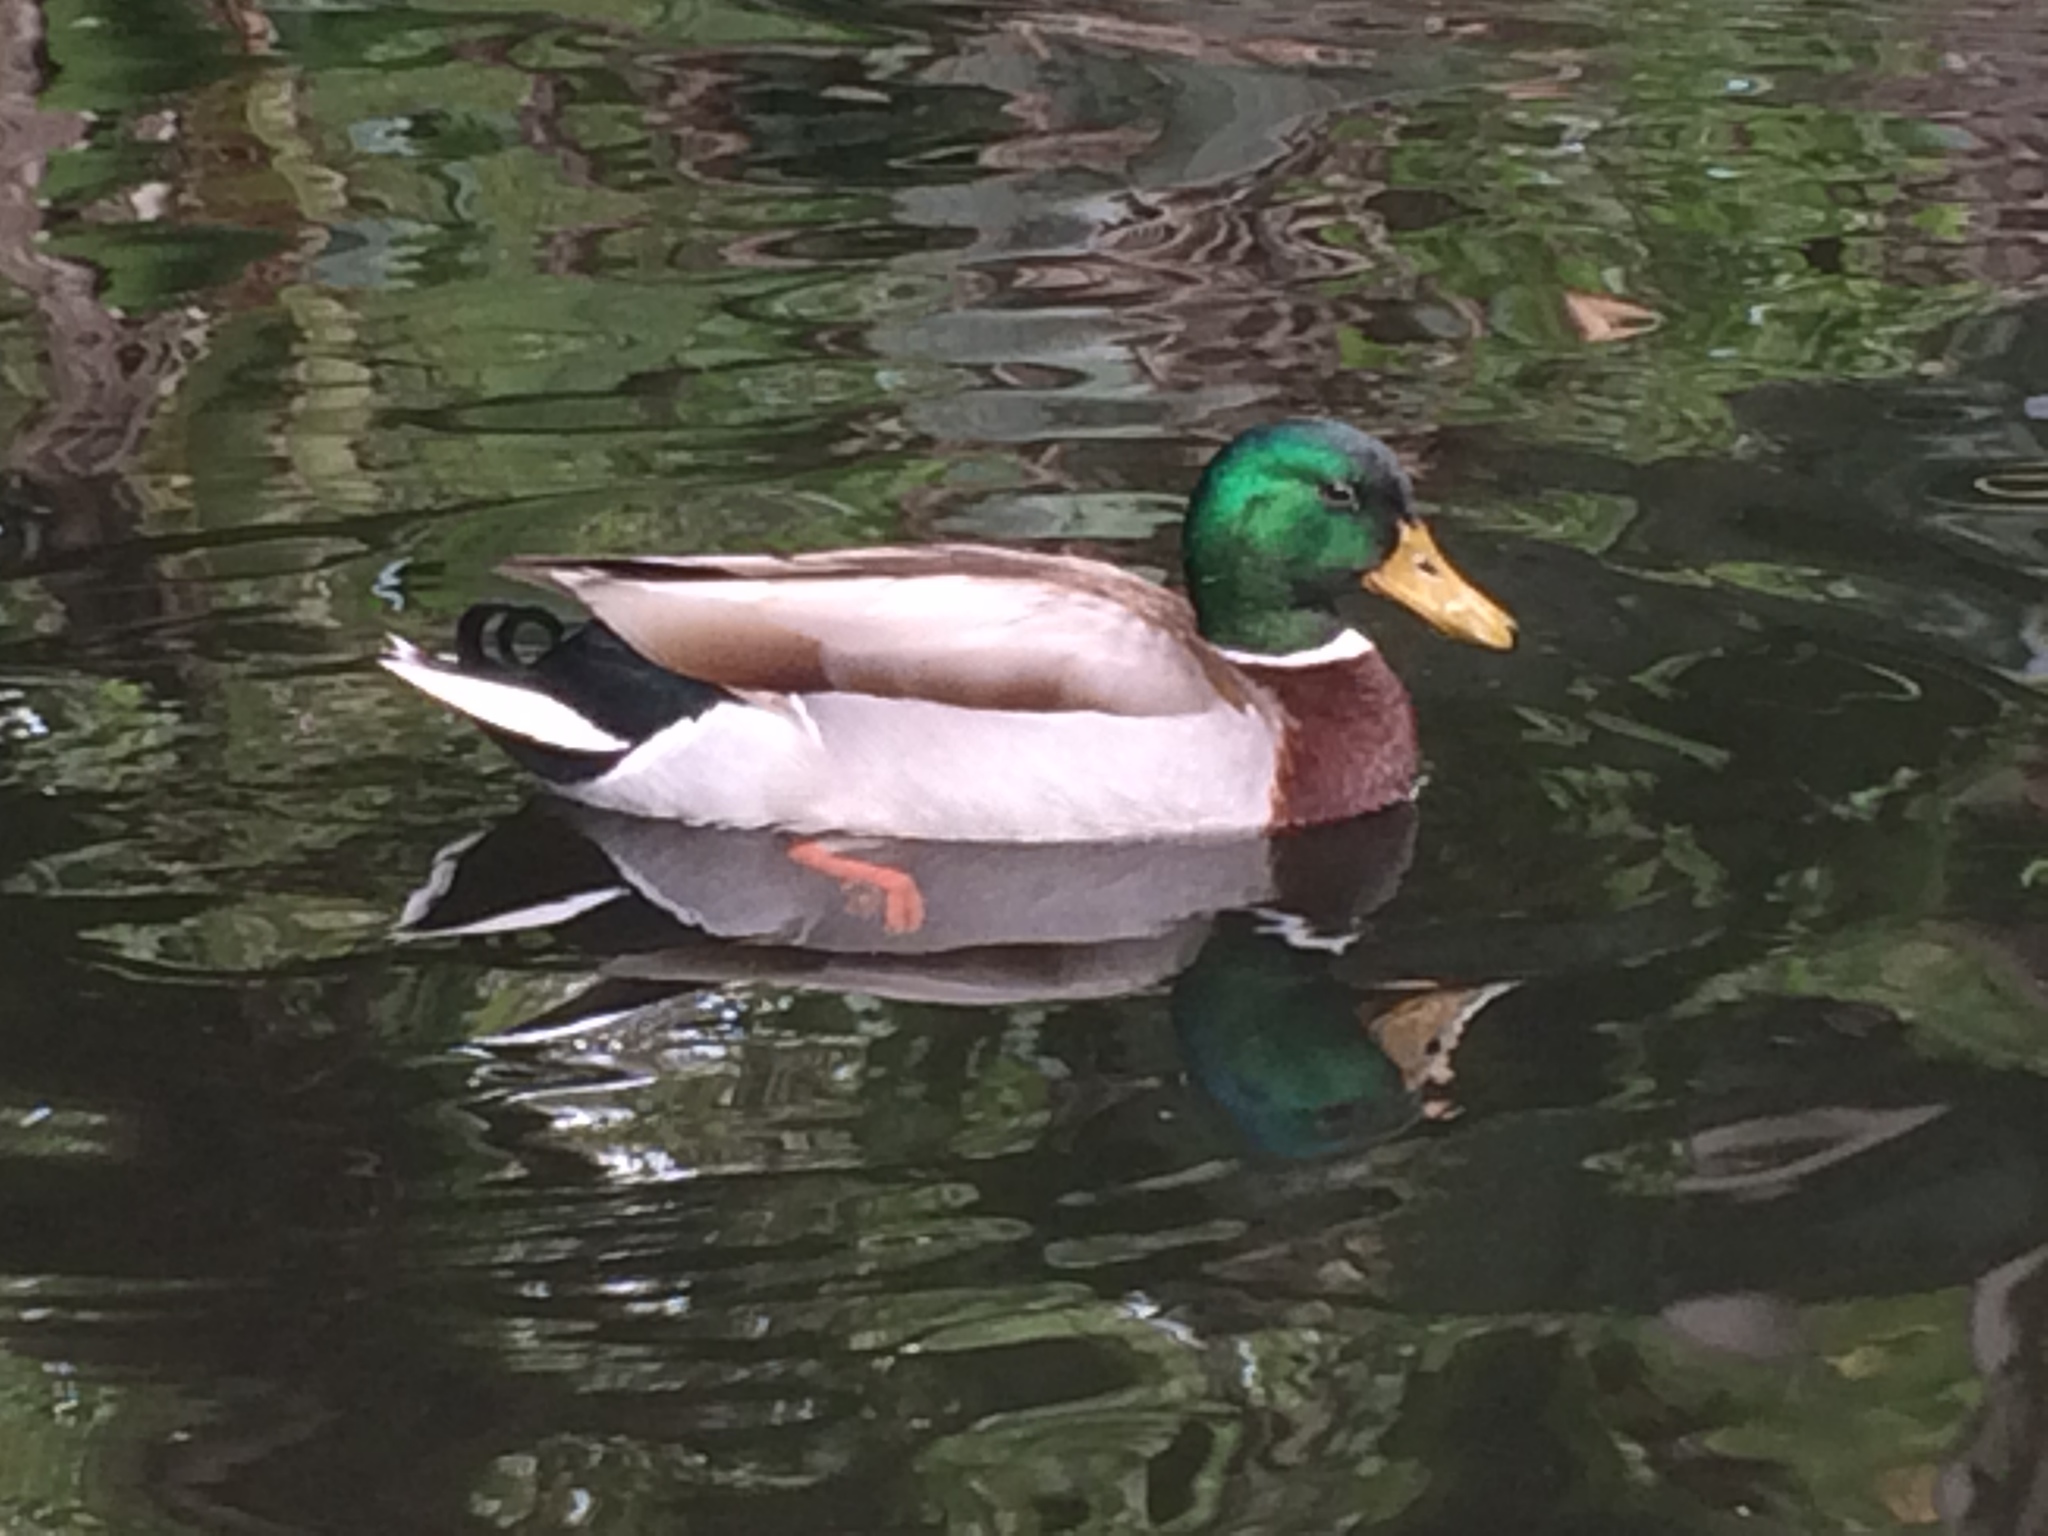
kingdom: Animalia
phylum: Chordata
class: Aves
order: Anseriformes
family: Anatidae
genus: Anas
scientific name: Anas platyrhynchos
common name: Mallard
